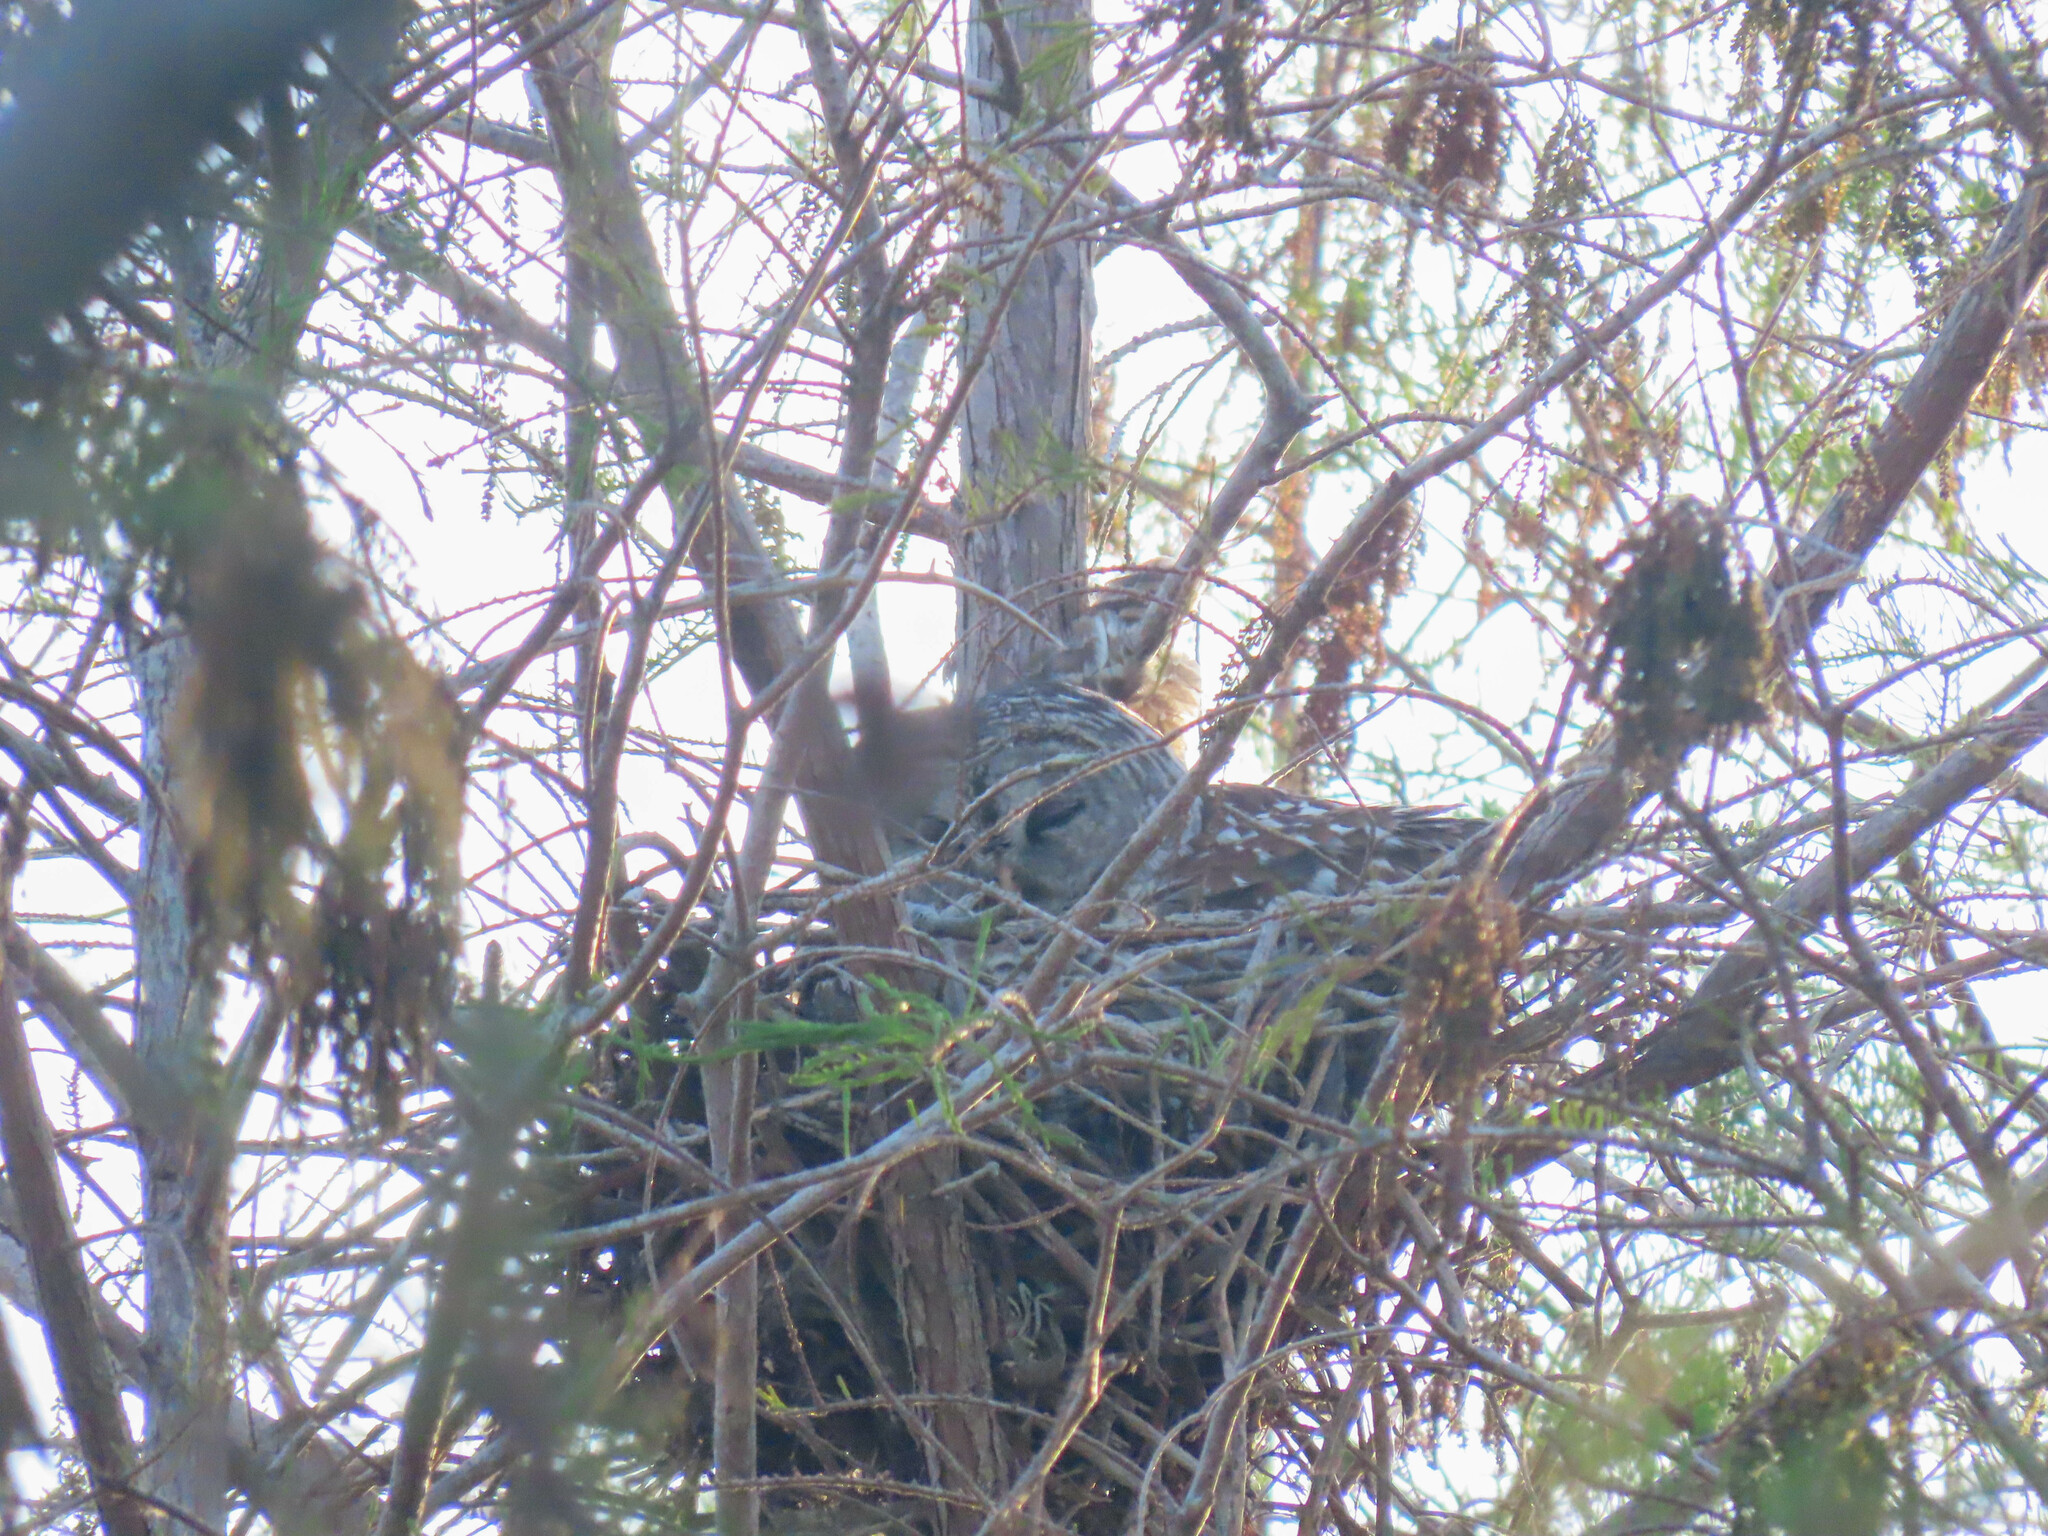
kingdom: Animalia
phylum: Chordata
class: Aves
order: Strigiformes
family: Strigidae
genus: Strix
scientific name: Strix varia
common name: Barred owl
